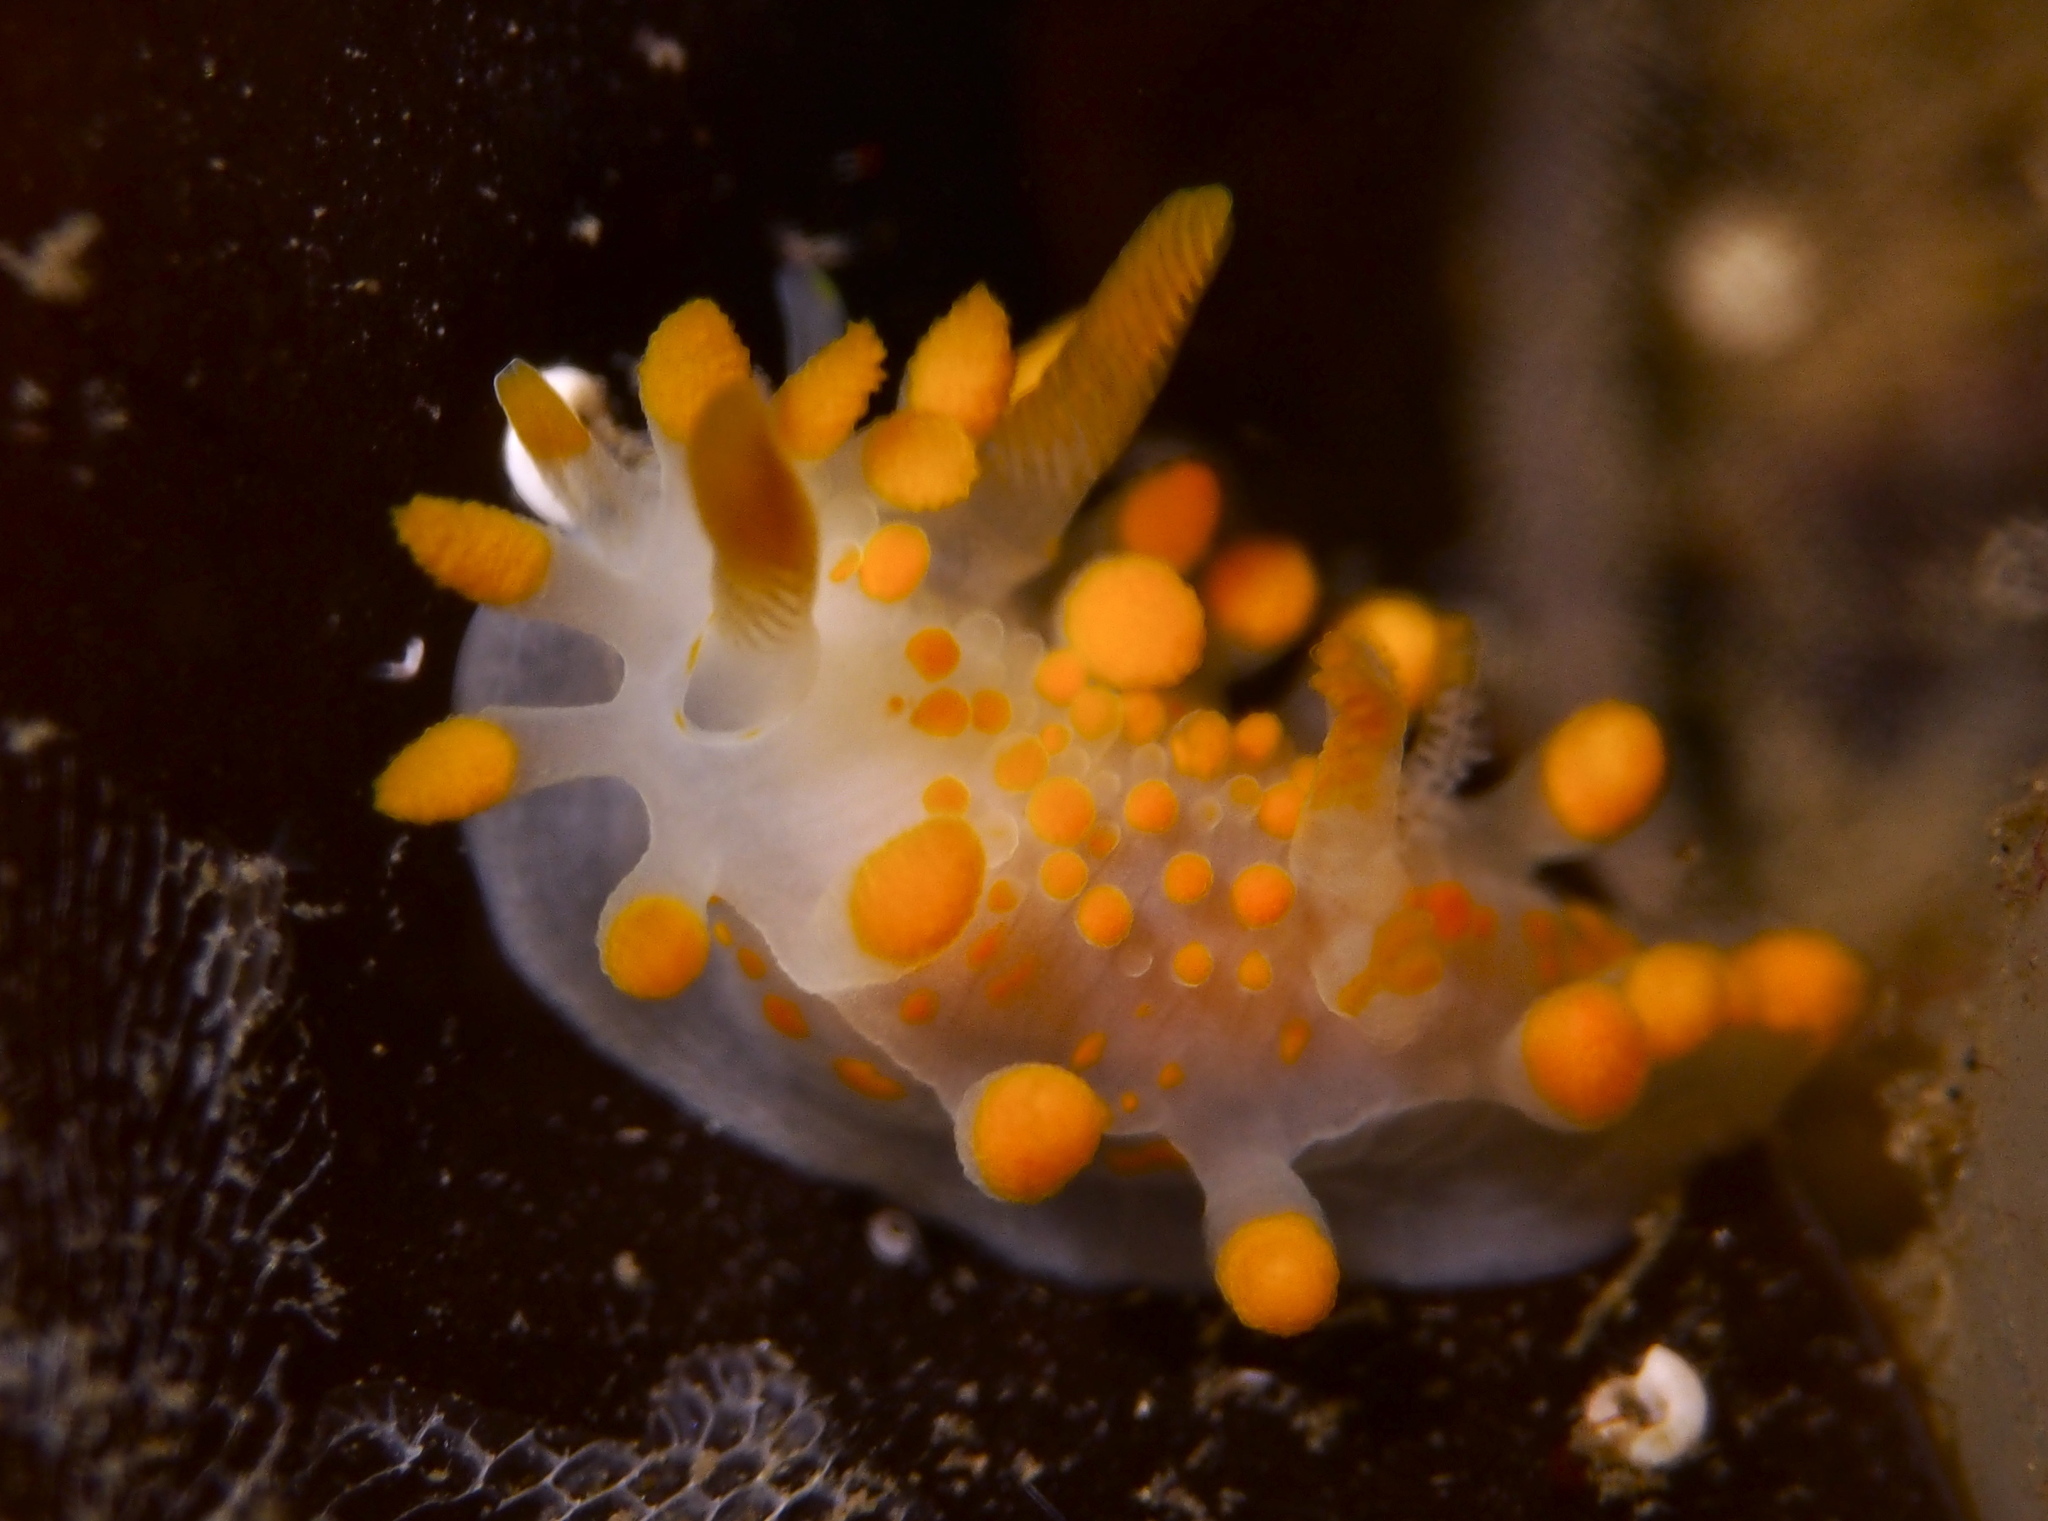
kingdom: Animalia
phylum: Mollusca
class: Gastropoda
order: Nudibranchia
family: Polyceridae
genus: Limacia
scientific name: Limacia clavigera
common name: Orange-clubbed sea slug
